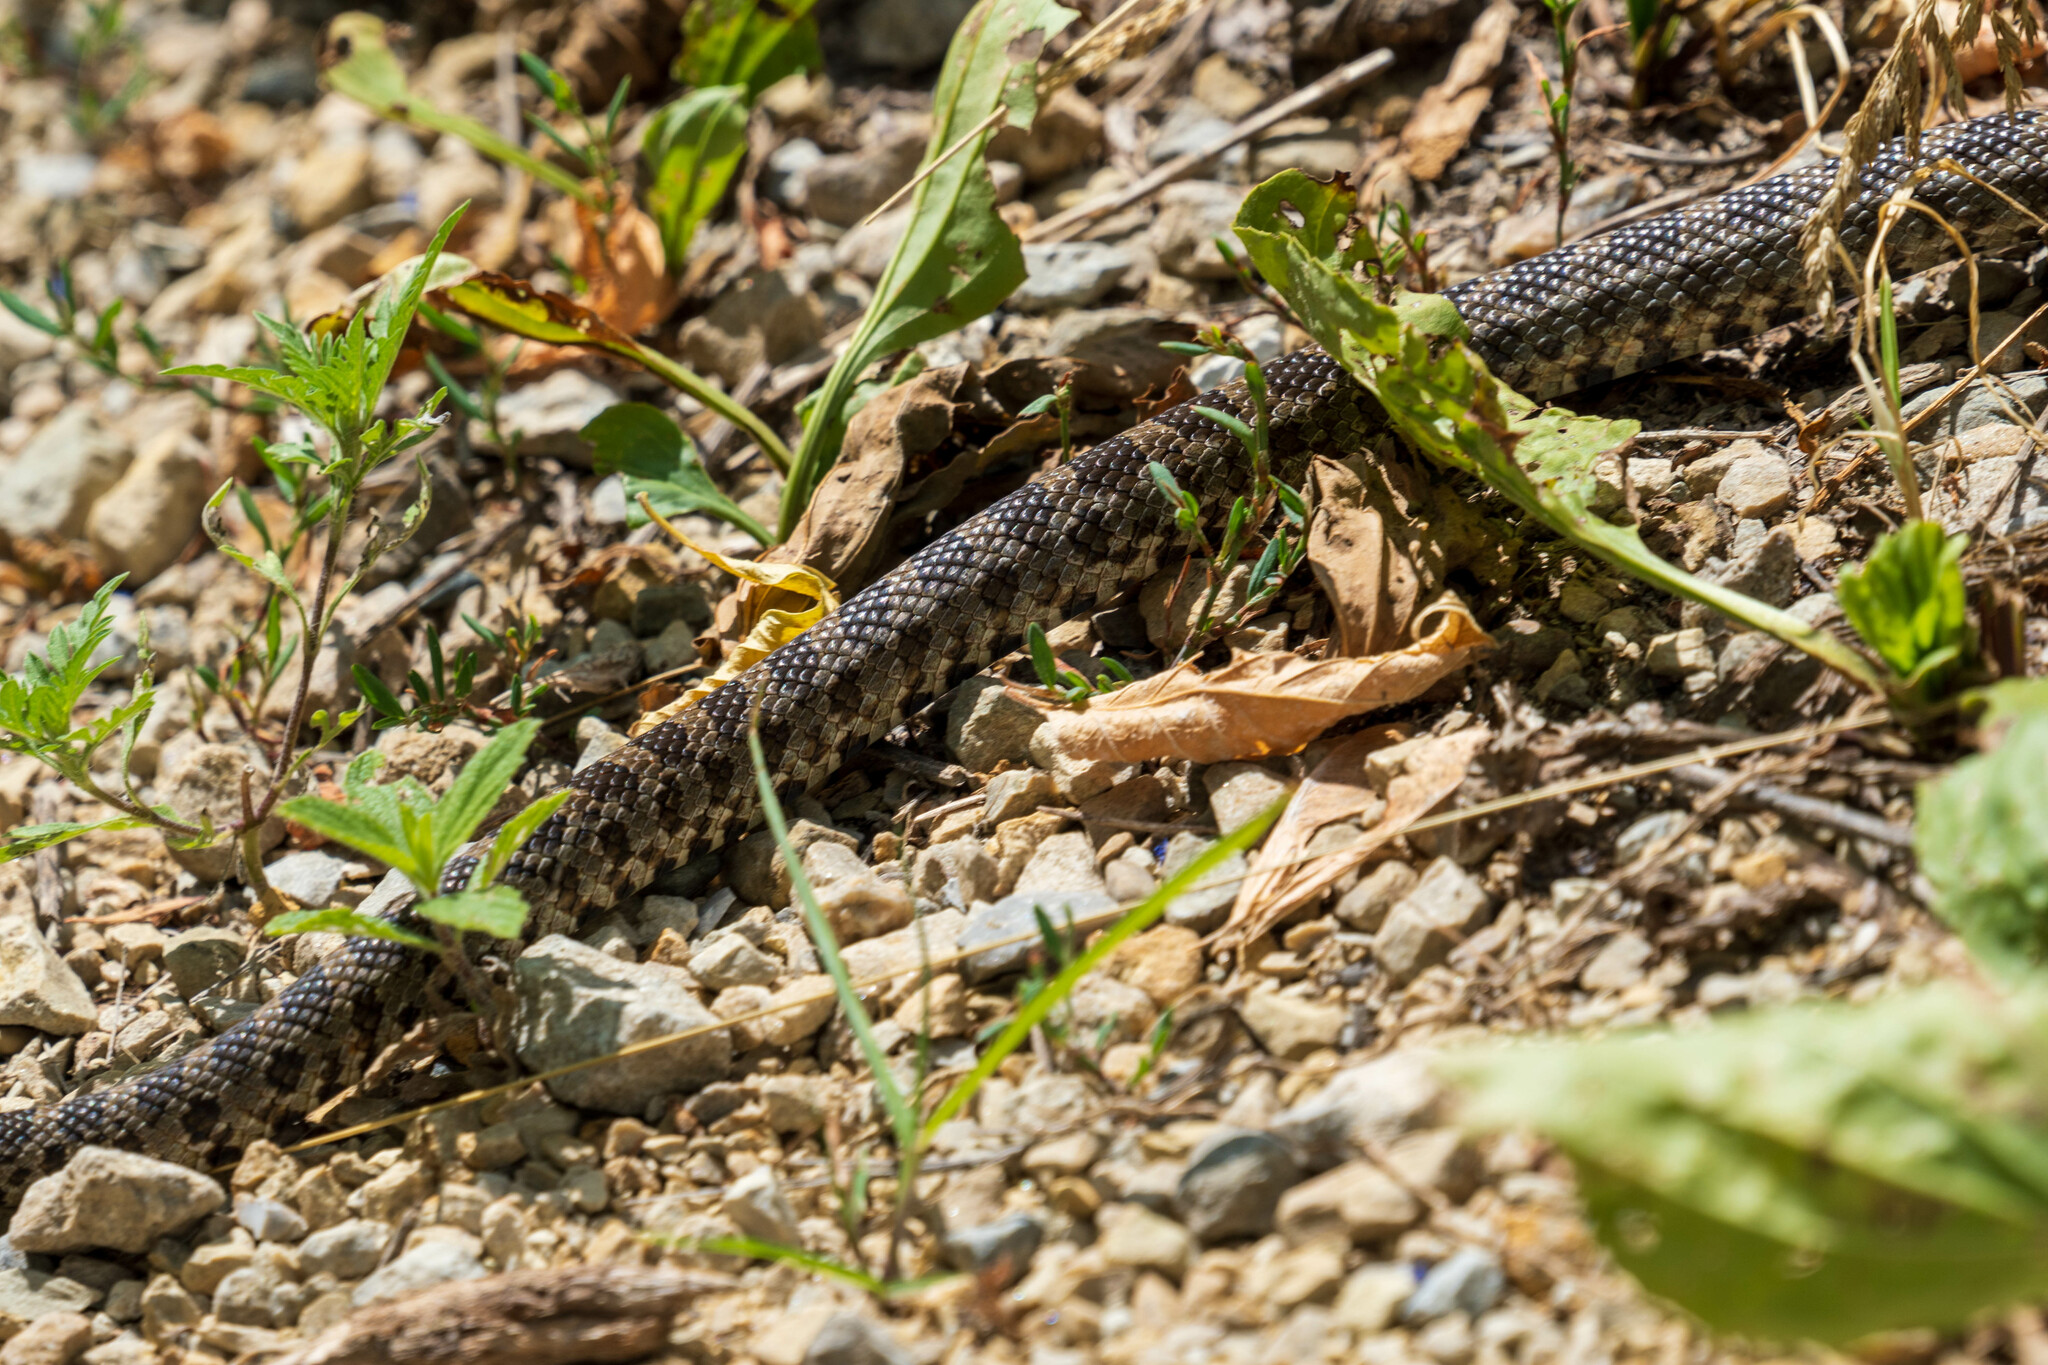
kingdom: Animalia
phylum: Chordata
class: Squamata
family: Colubridae
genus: Pantherophis
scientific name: Pantherophis ramspotti
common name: Western foxsnake
